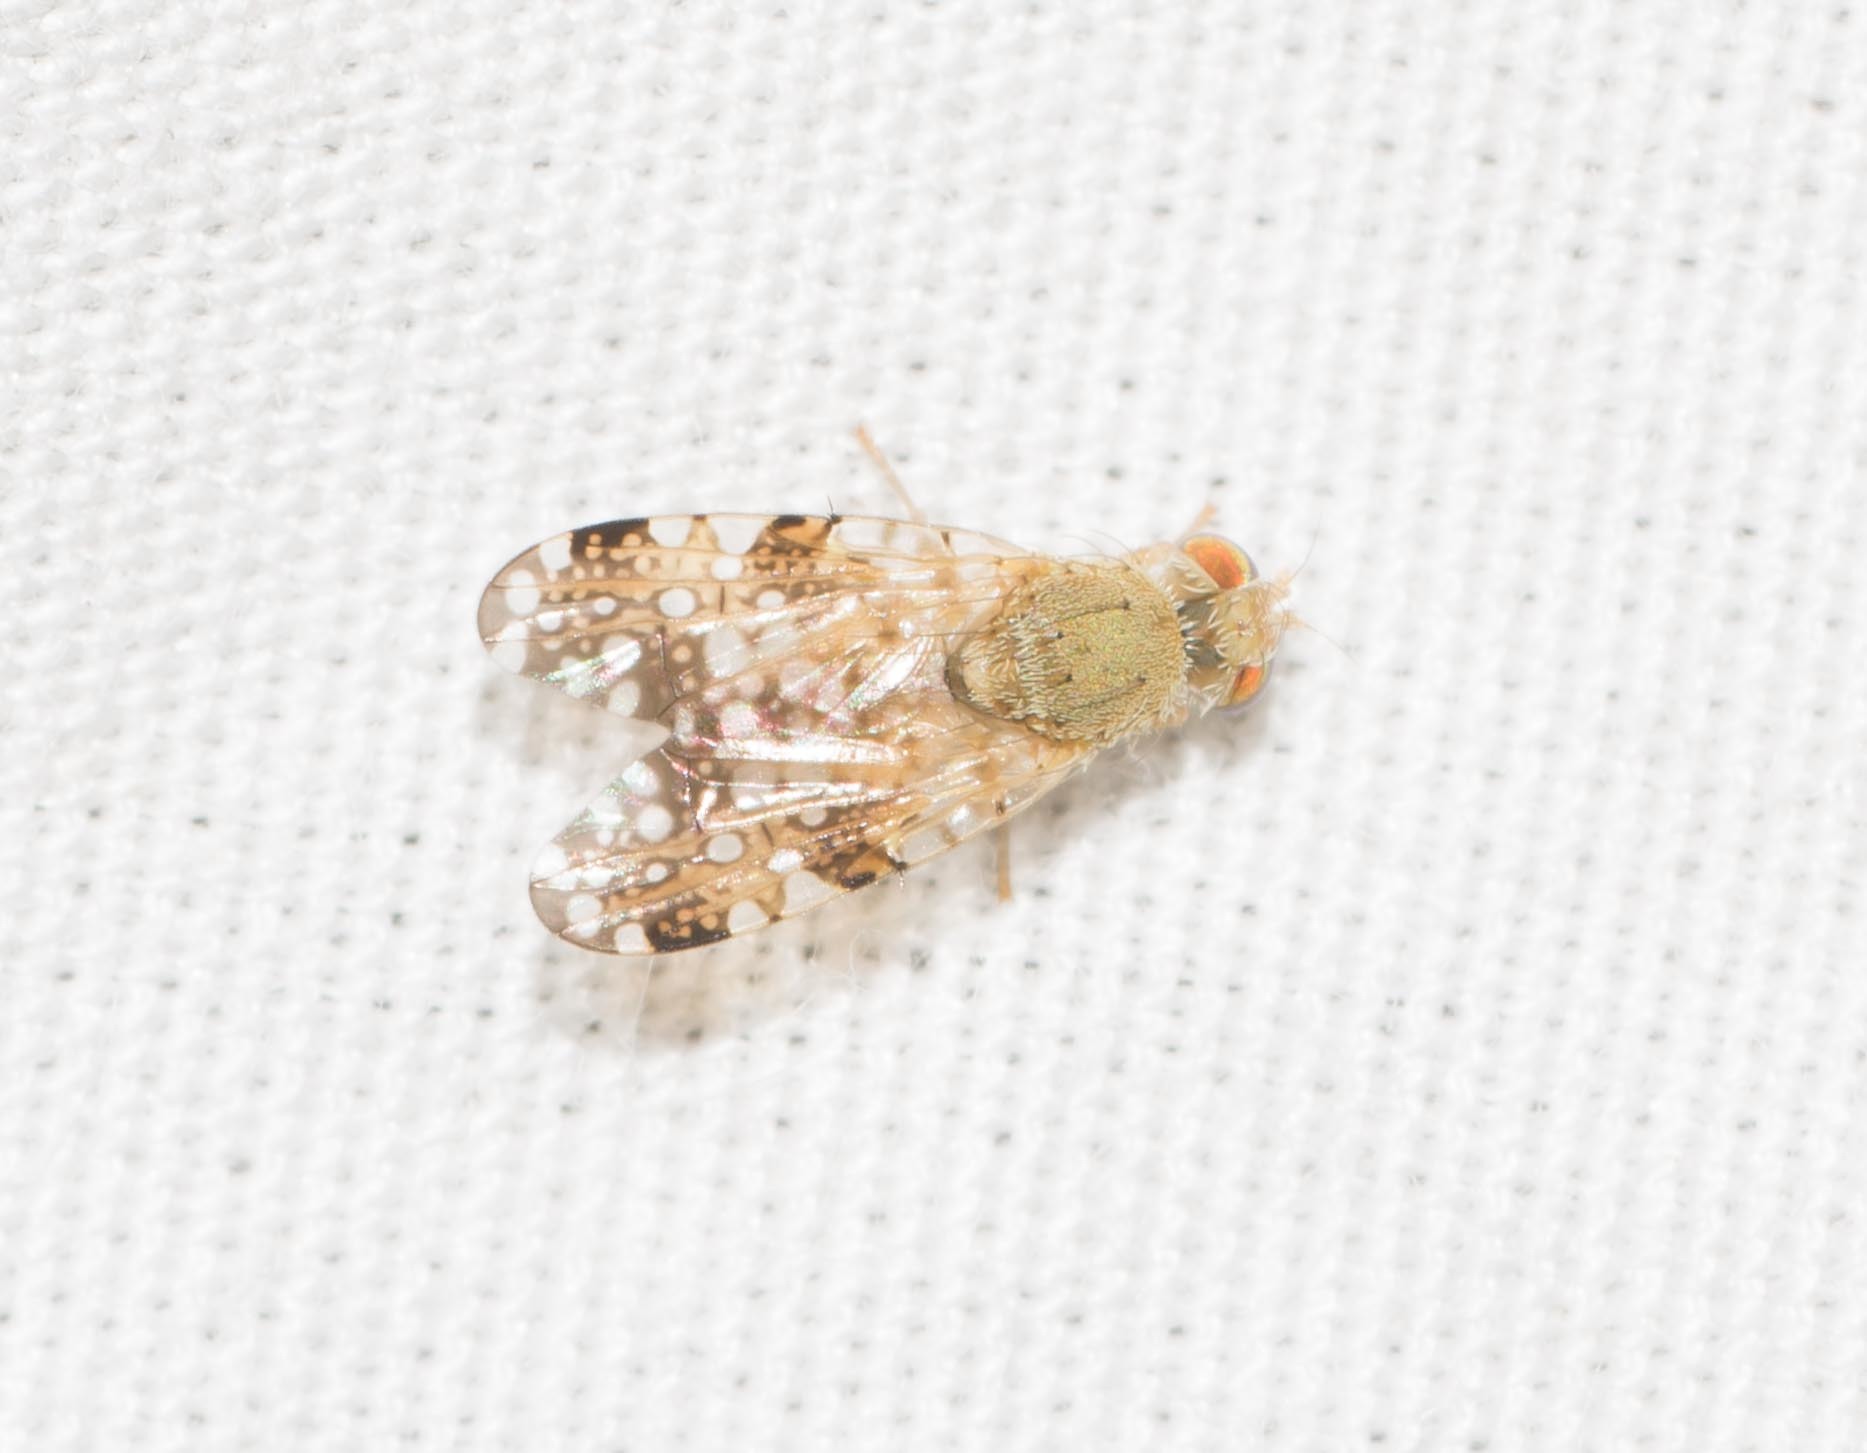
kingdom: Animalia
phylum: Arthropoda
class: Insecta
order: Diptera
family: Tephritidae
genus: Acinia
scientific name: Acinia picturata
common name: Sourbush seed fly
